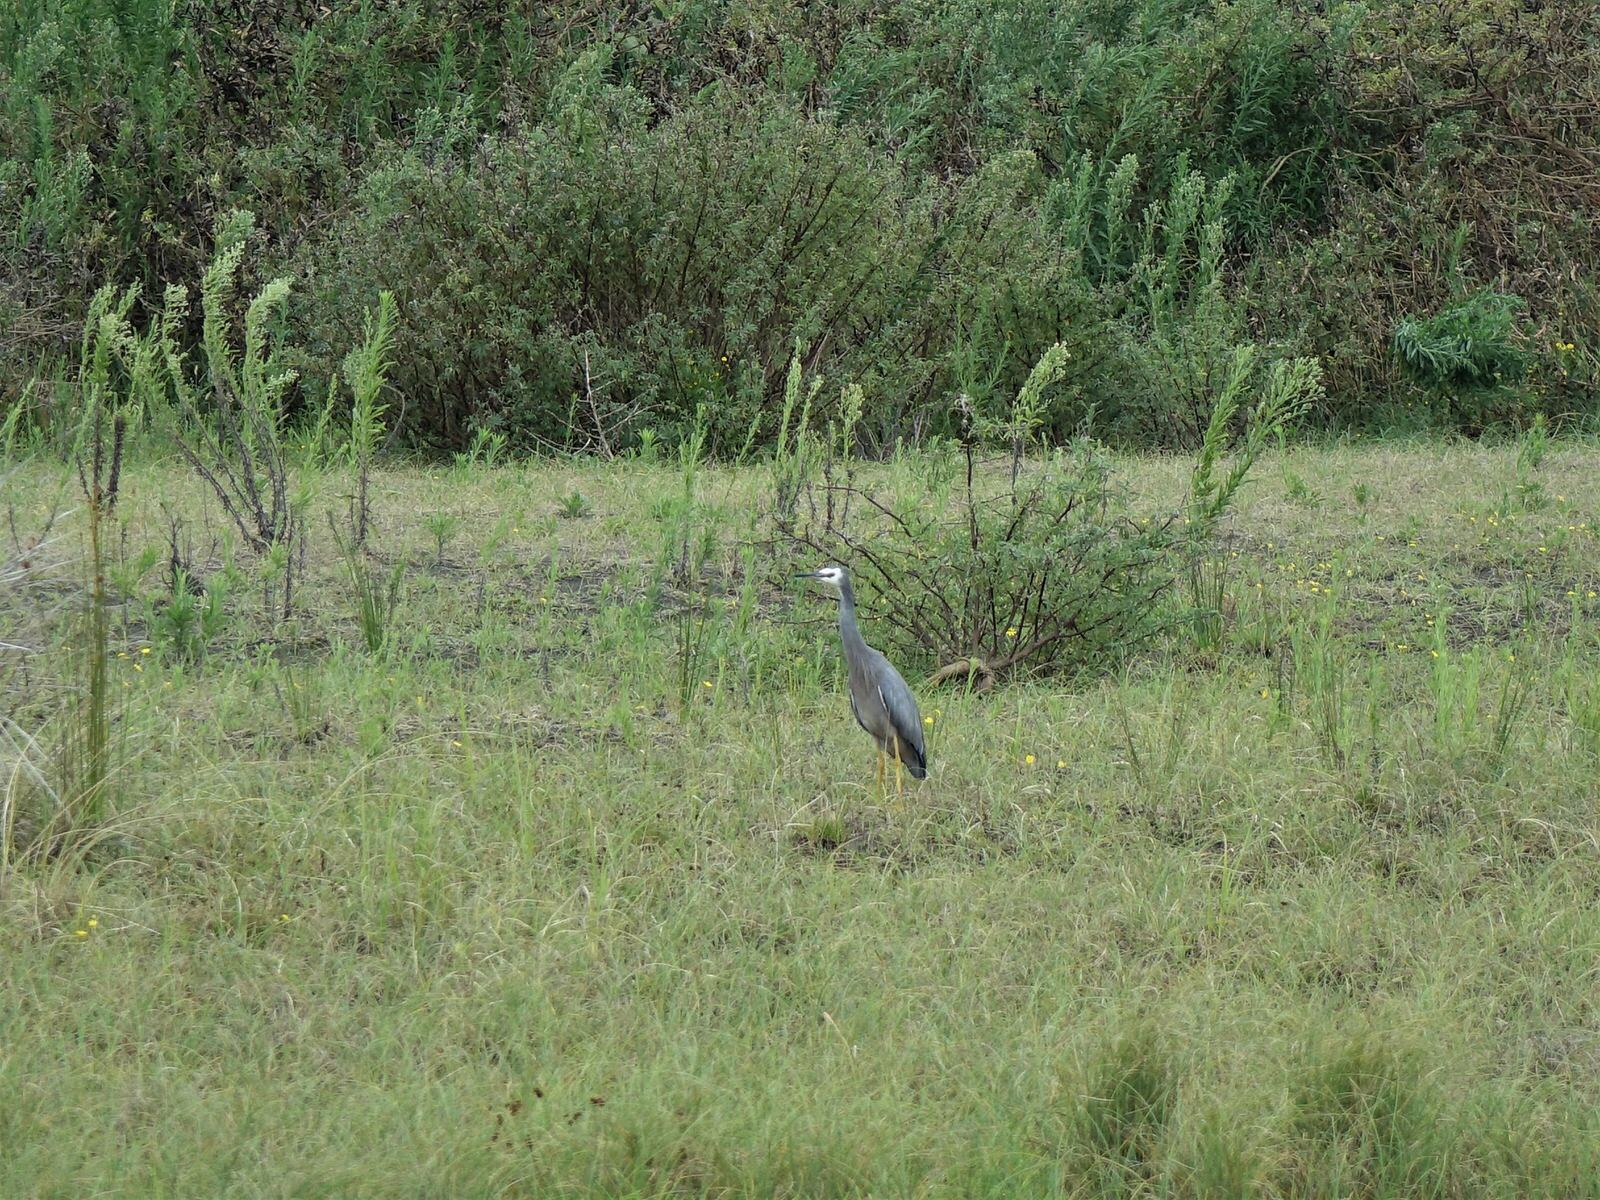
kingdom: Animalia
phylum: Chordata
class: Aves
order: Pelecaniformes
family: Ardeidae
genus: Egretta
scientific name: Egretta novaehollandiae
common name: White-faced heron
